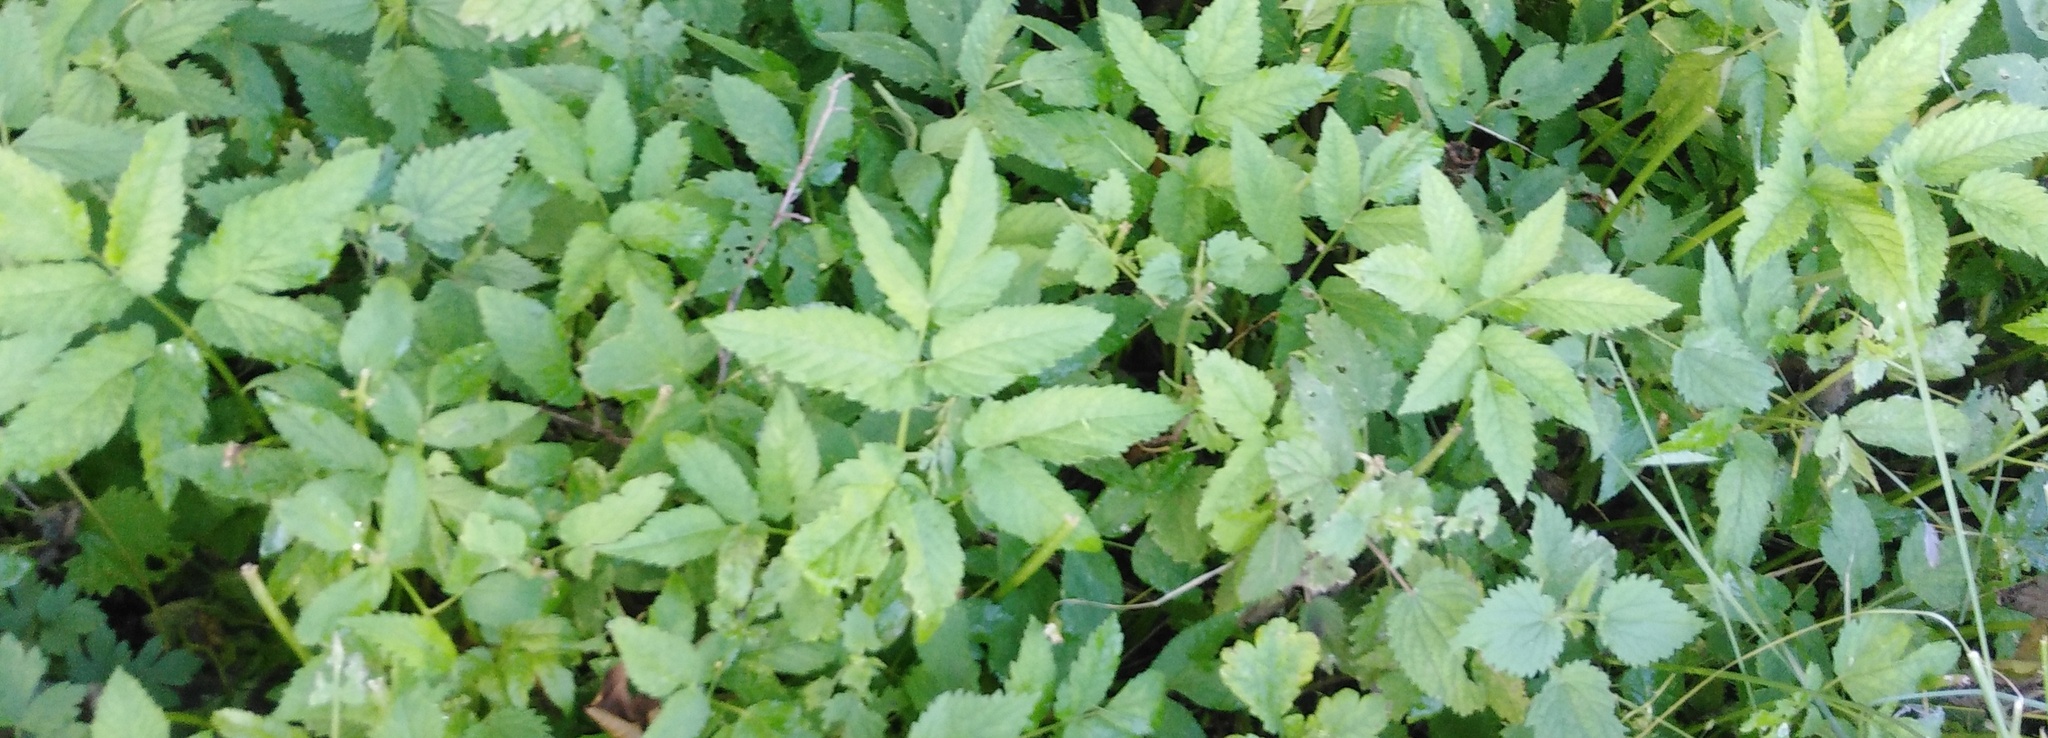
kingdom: Plantae
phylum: Tracheophyta
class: Magnoliopsida
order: Apiales
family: Apiaceae
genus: Aegopodium
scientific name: Aegopodium podagraria
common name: Ground-elder
